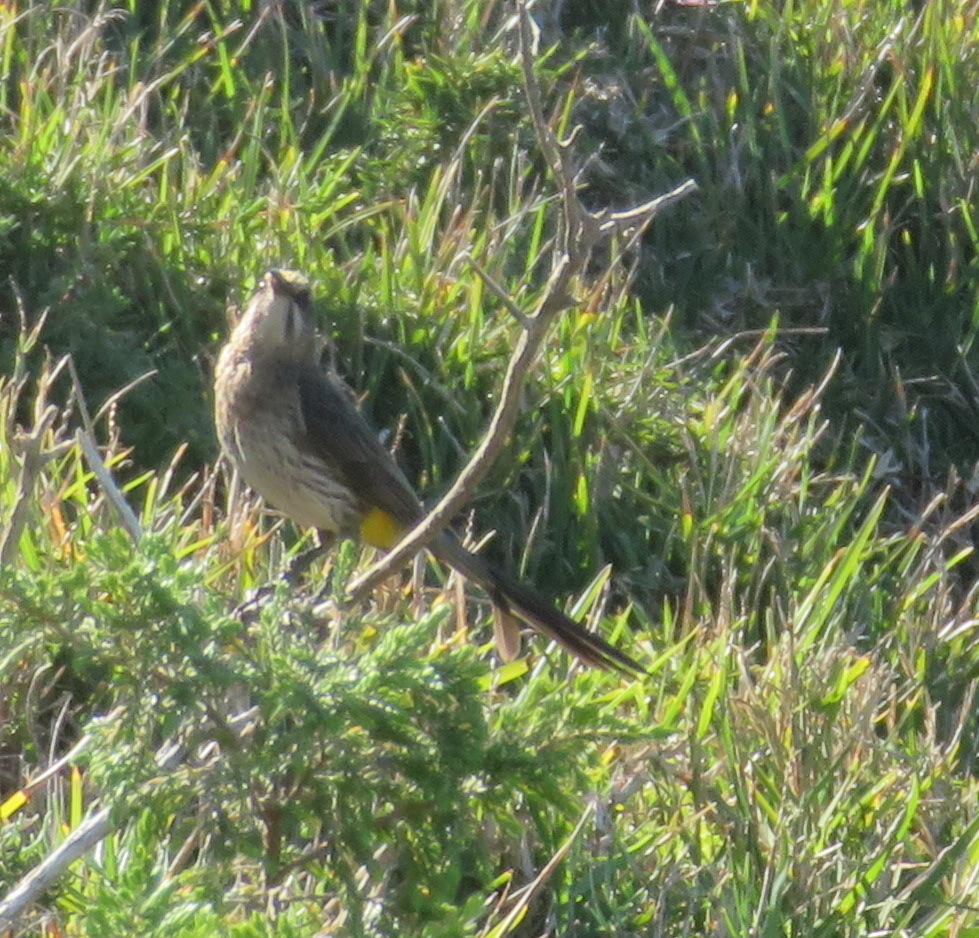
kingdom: Animalia
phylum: Chordata
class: Aves
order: Passeriformes
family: Promeropidae
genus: Promerops
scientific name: Promerops cafer
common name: Cape sugarbird
